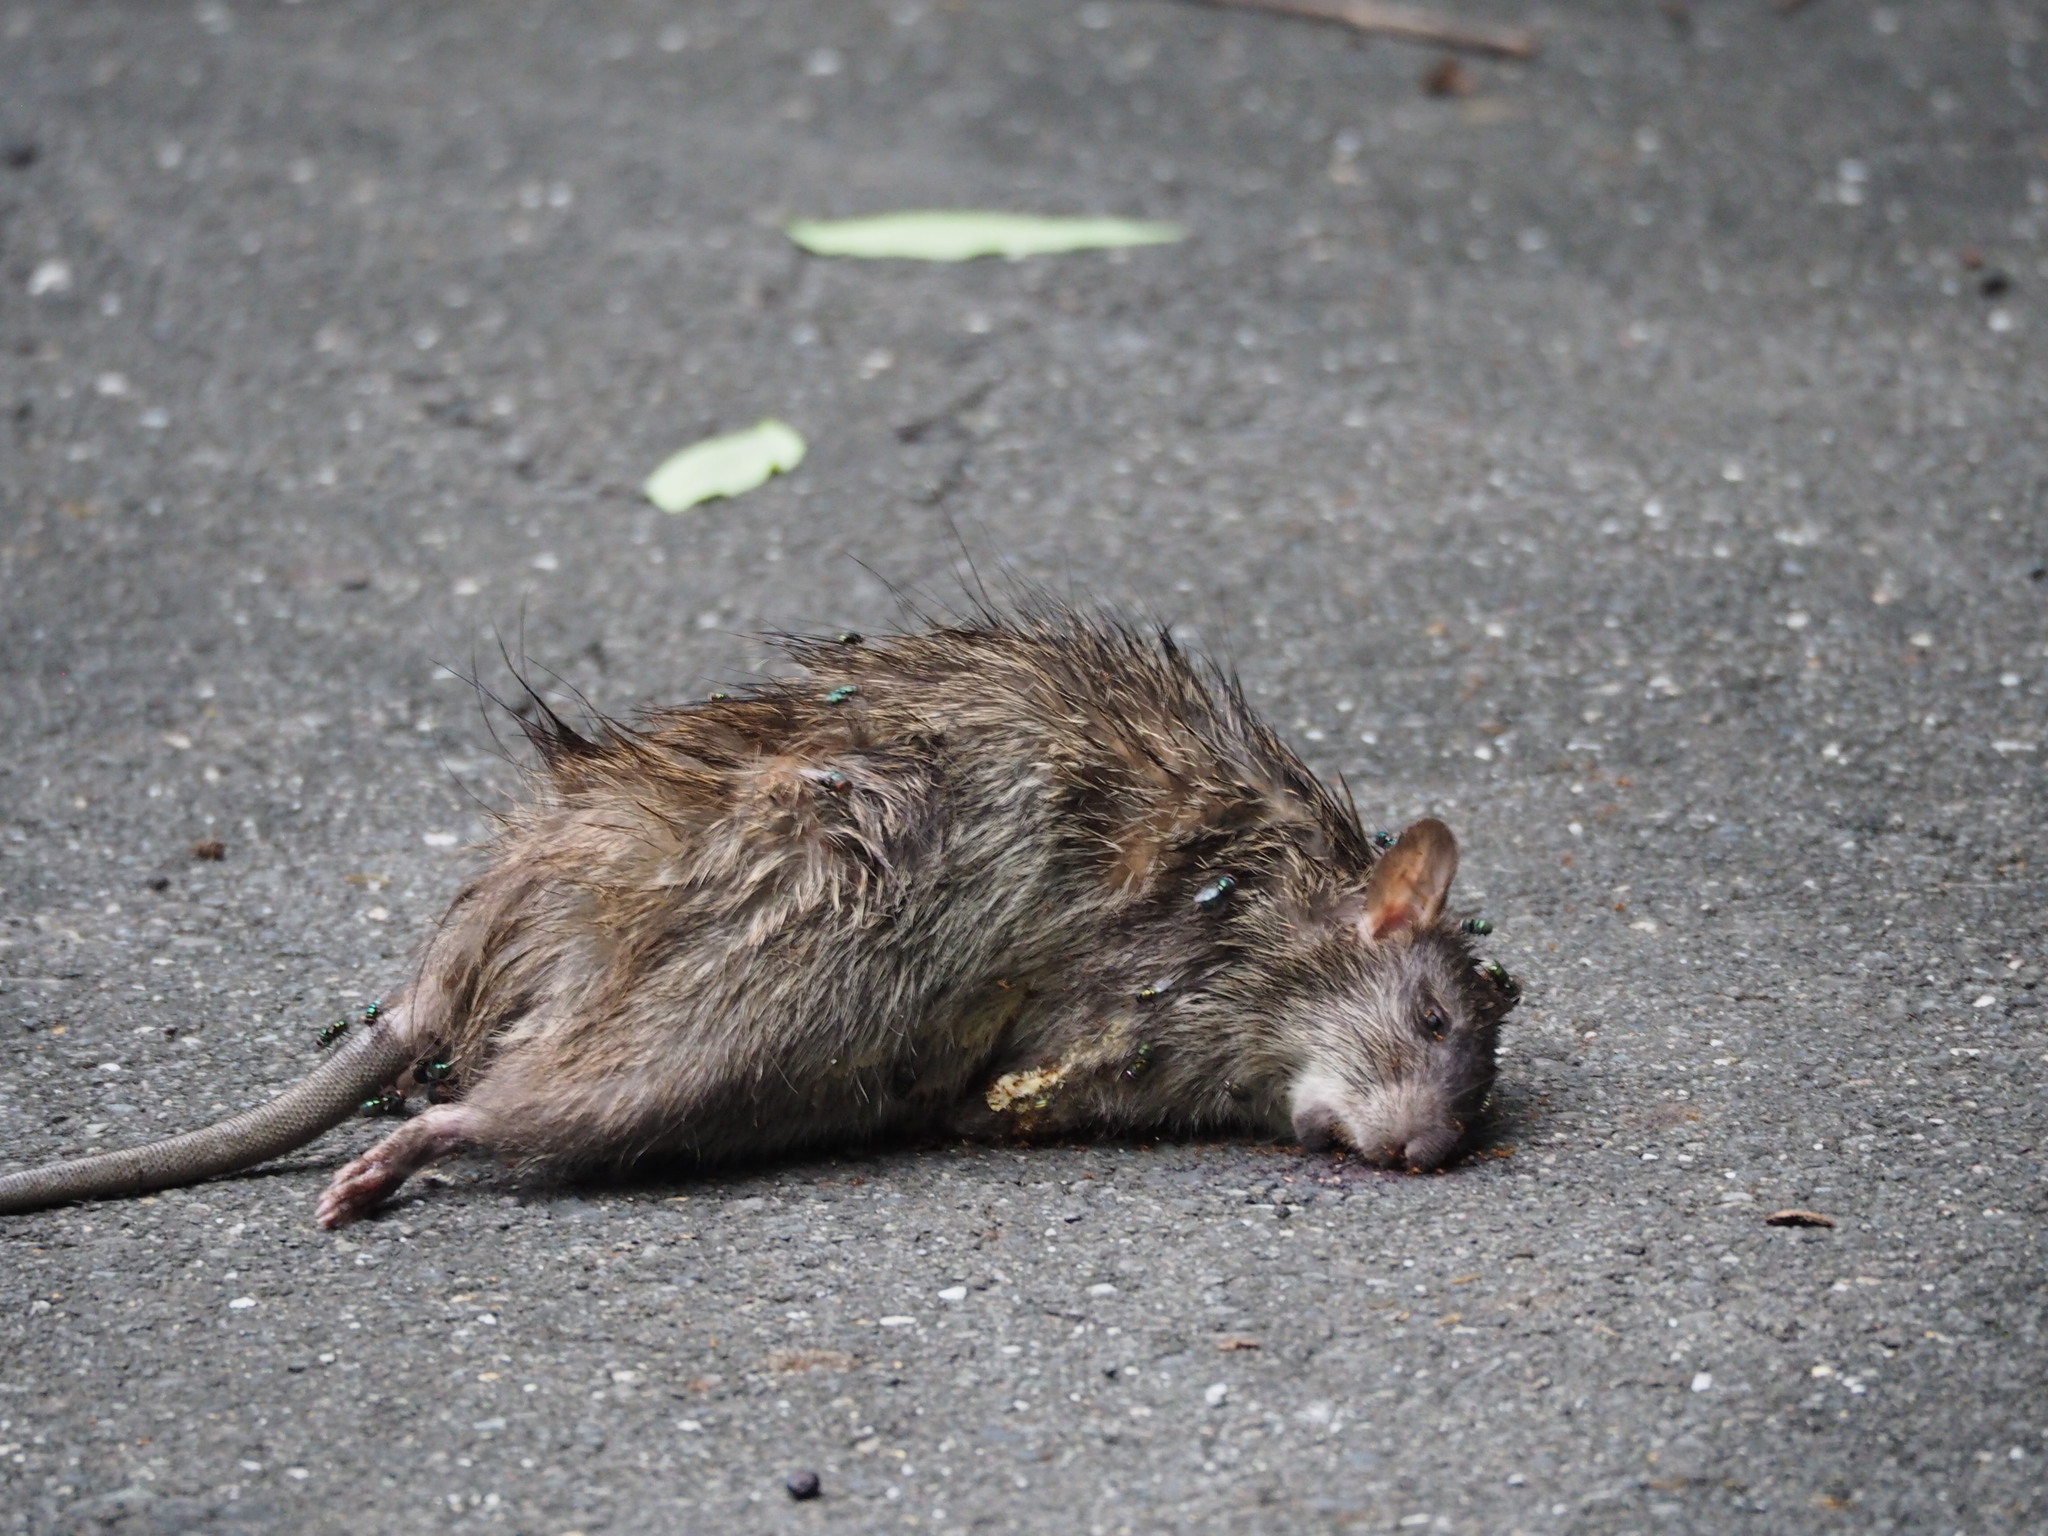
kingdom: Animalia
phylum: Chordata
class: Mammalia
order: Rodentia
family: Muridae
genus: Bandicota
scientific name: Bandicota indica
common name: Greater bandicoot rat
